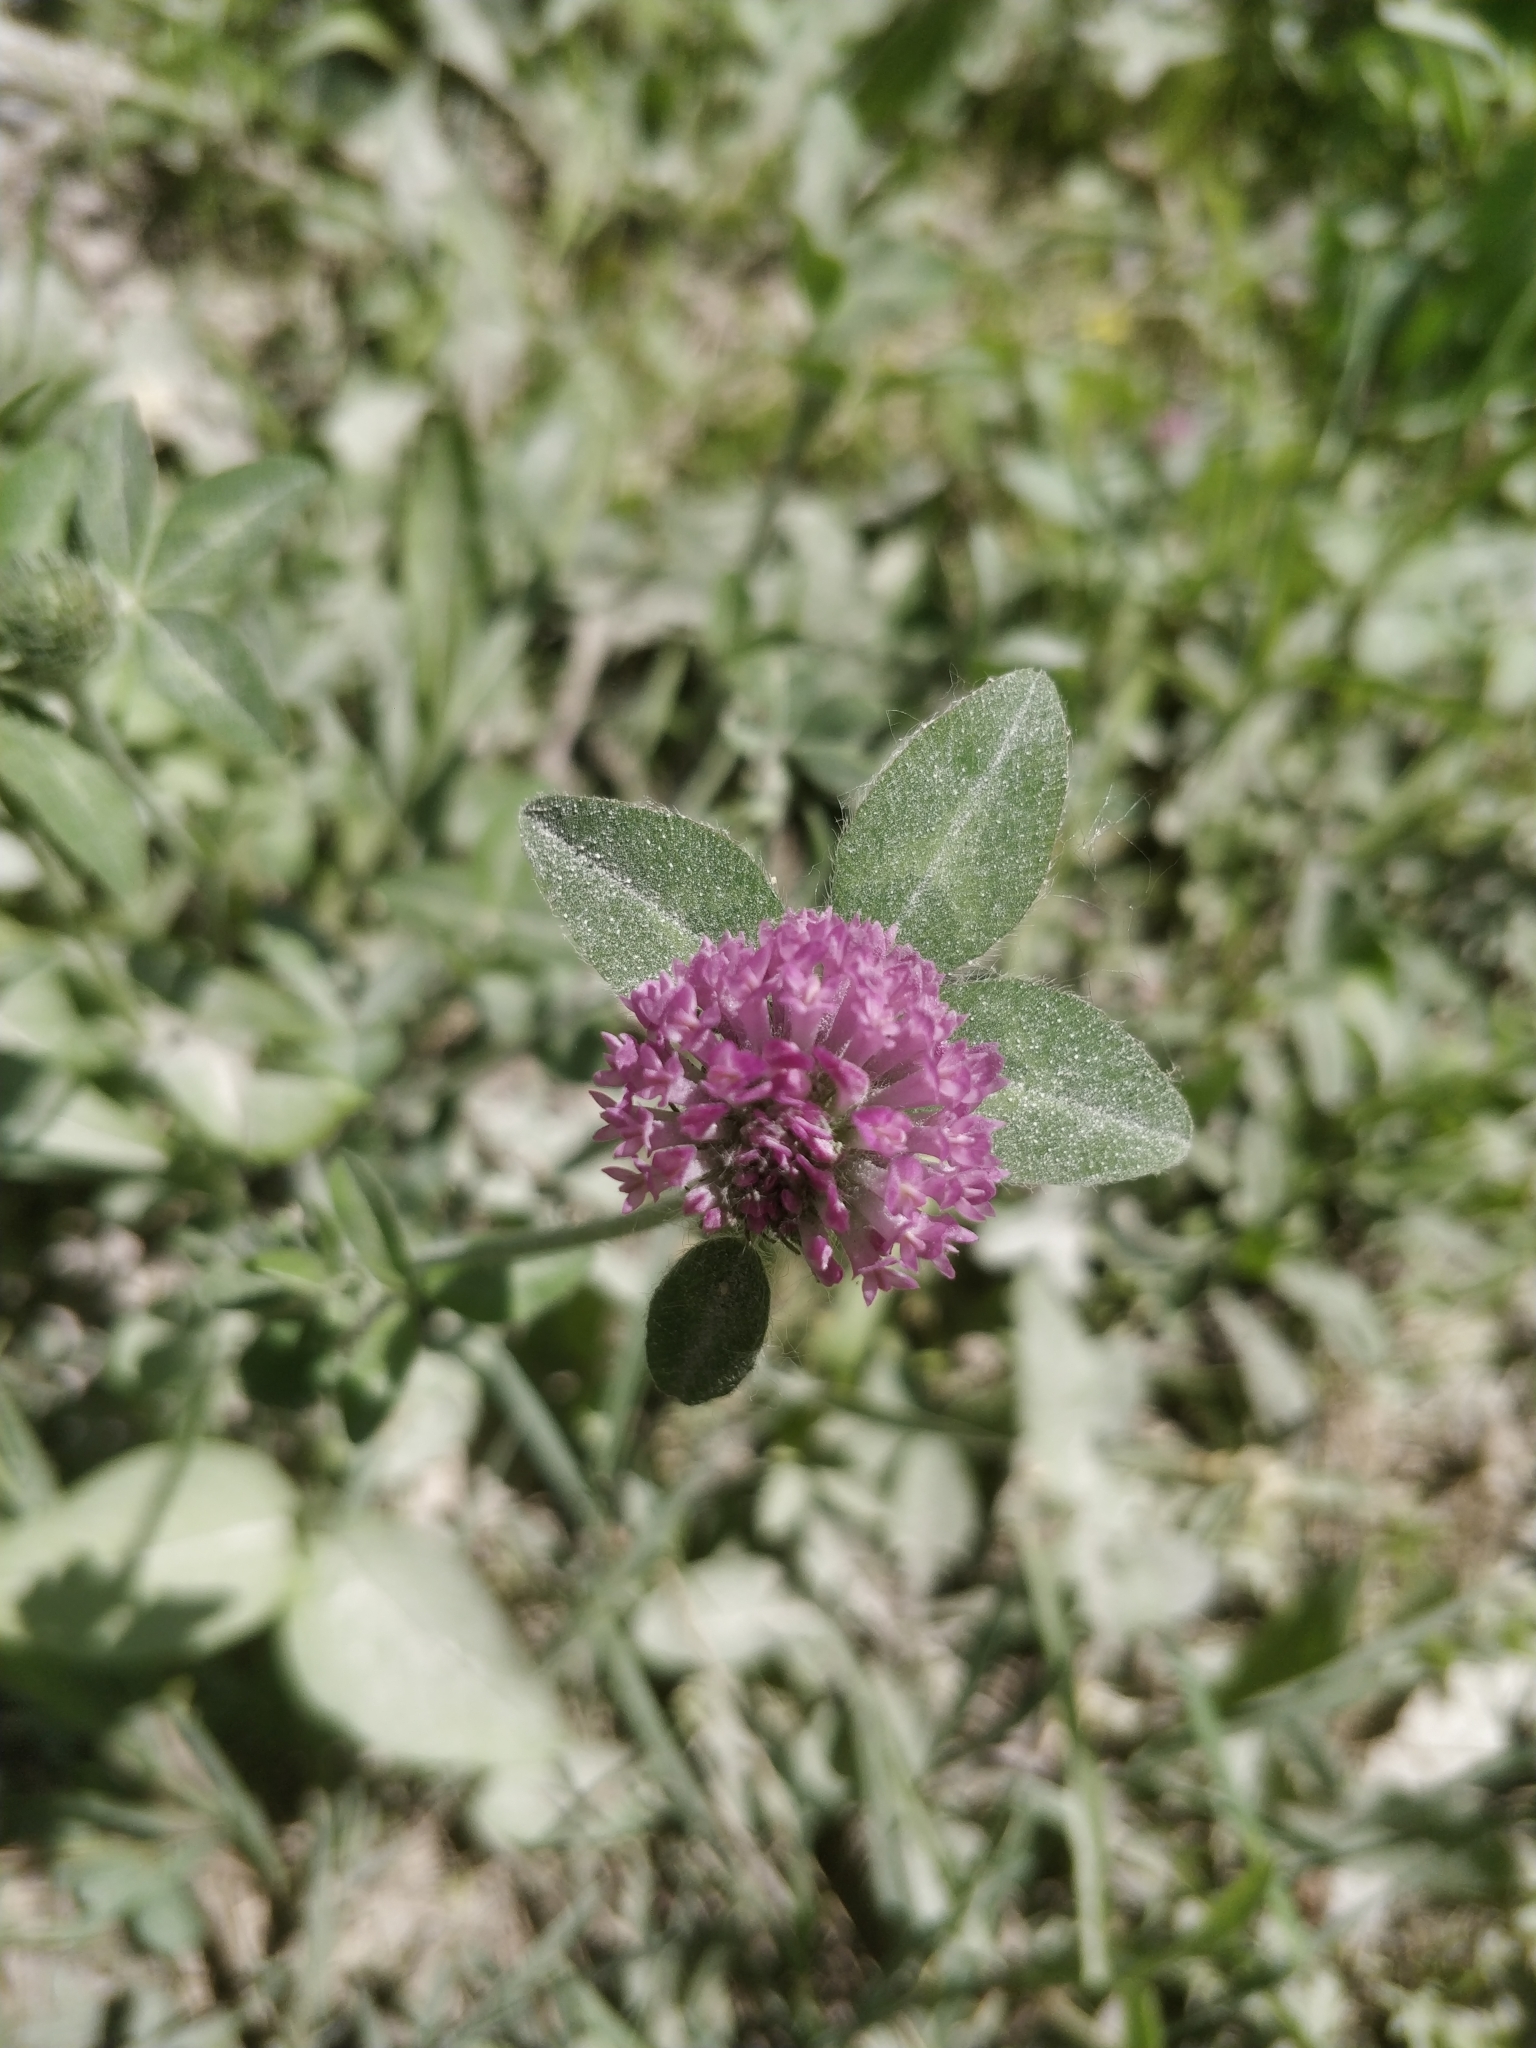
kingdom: Plantae
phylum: Tracheophyta
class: Magnoliopsida
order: Fabales
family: Fabaceae
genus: Trifolium
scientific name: Trifolium pratense
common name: Red clover
